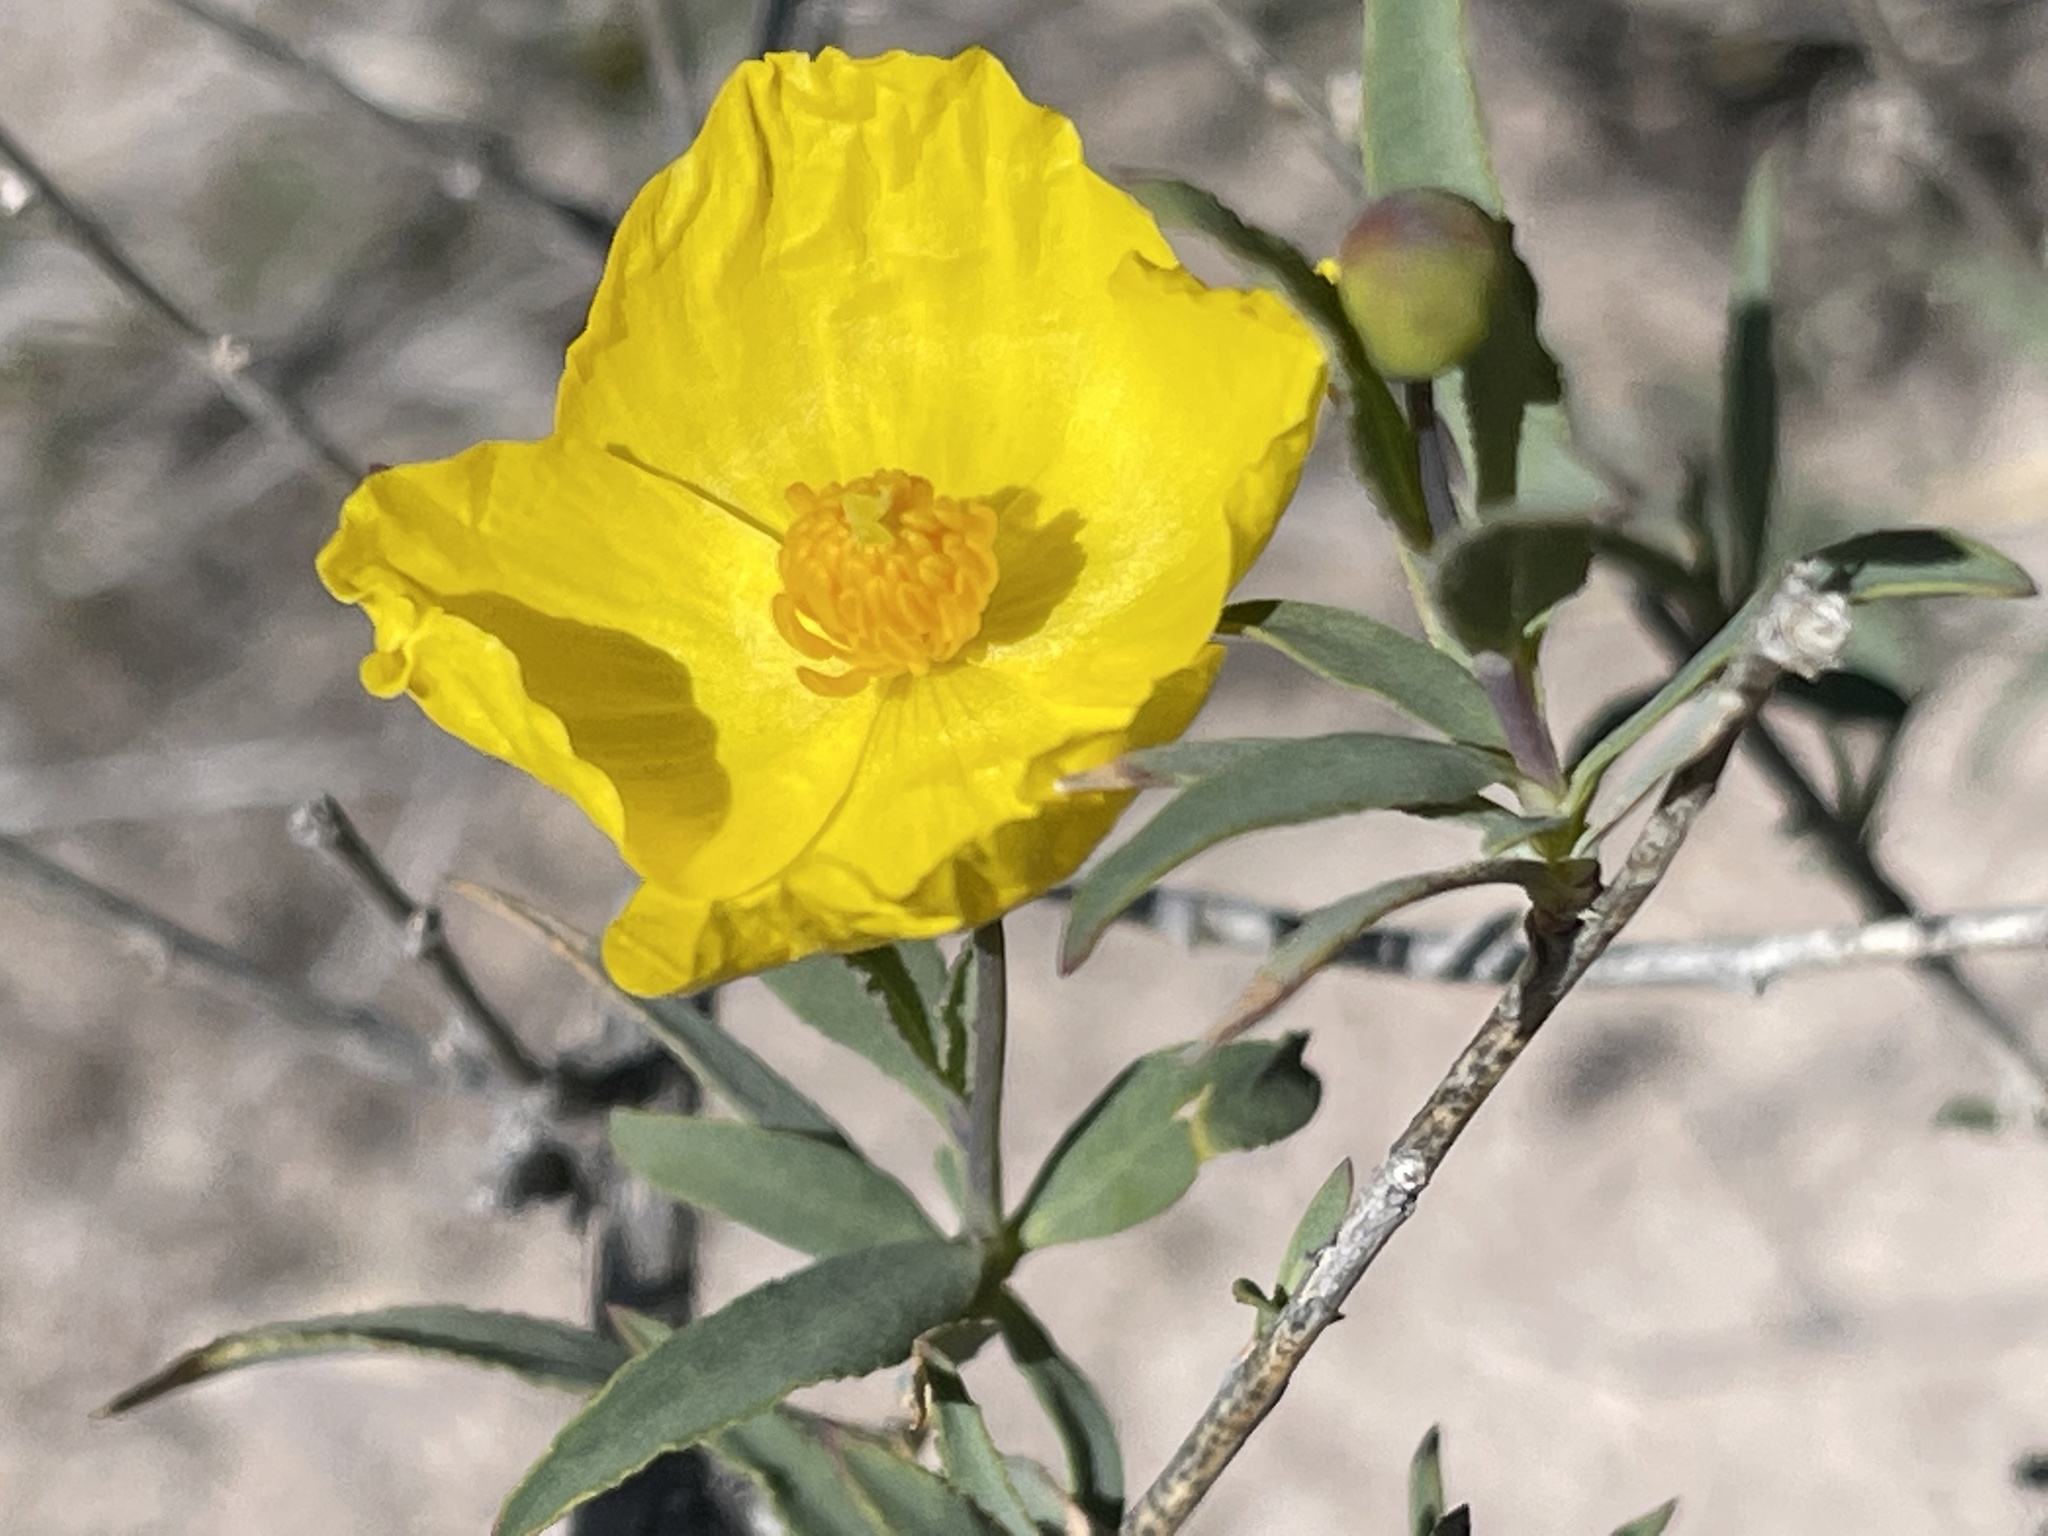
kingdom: Plantae
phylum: Tracheophyta
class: Magnoliopsida
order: Ranunculales
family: Papaveraceae
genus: Dendromecon
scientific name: Dendromecon rigida
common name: Tree poppy
